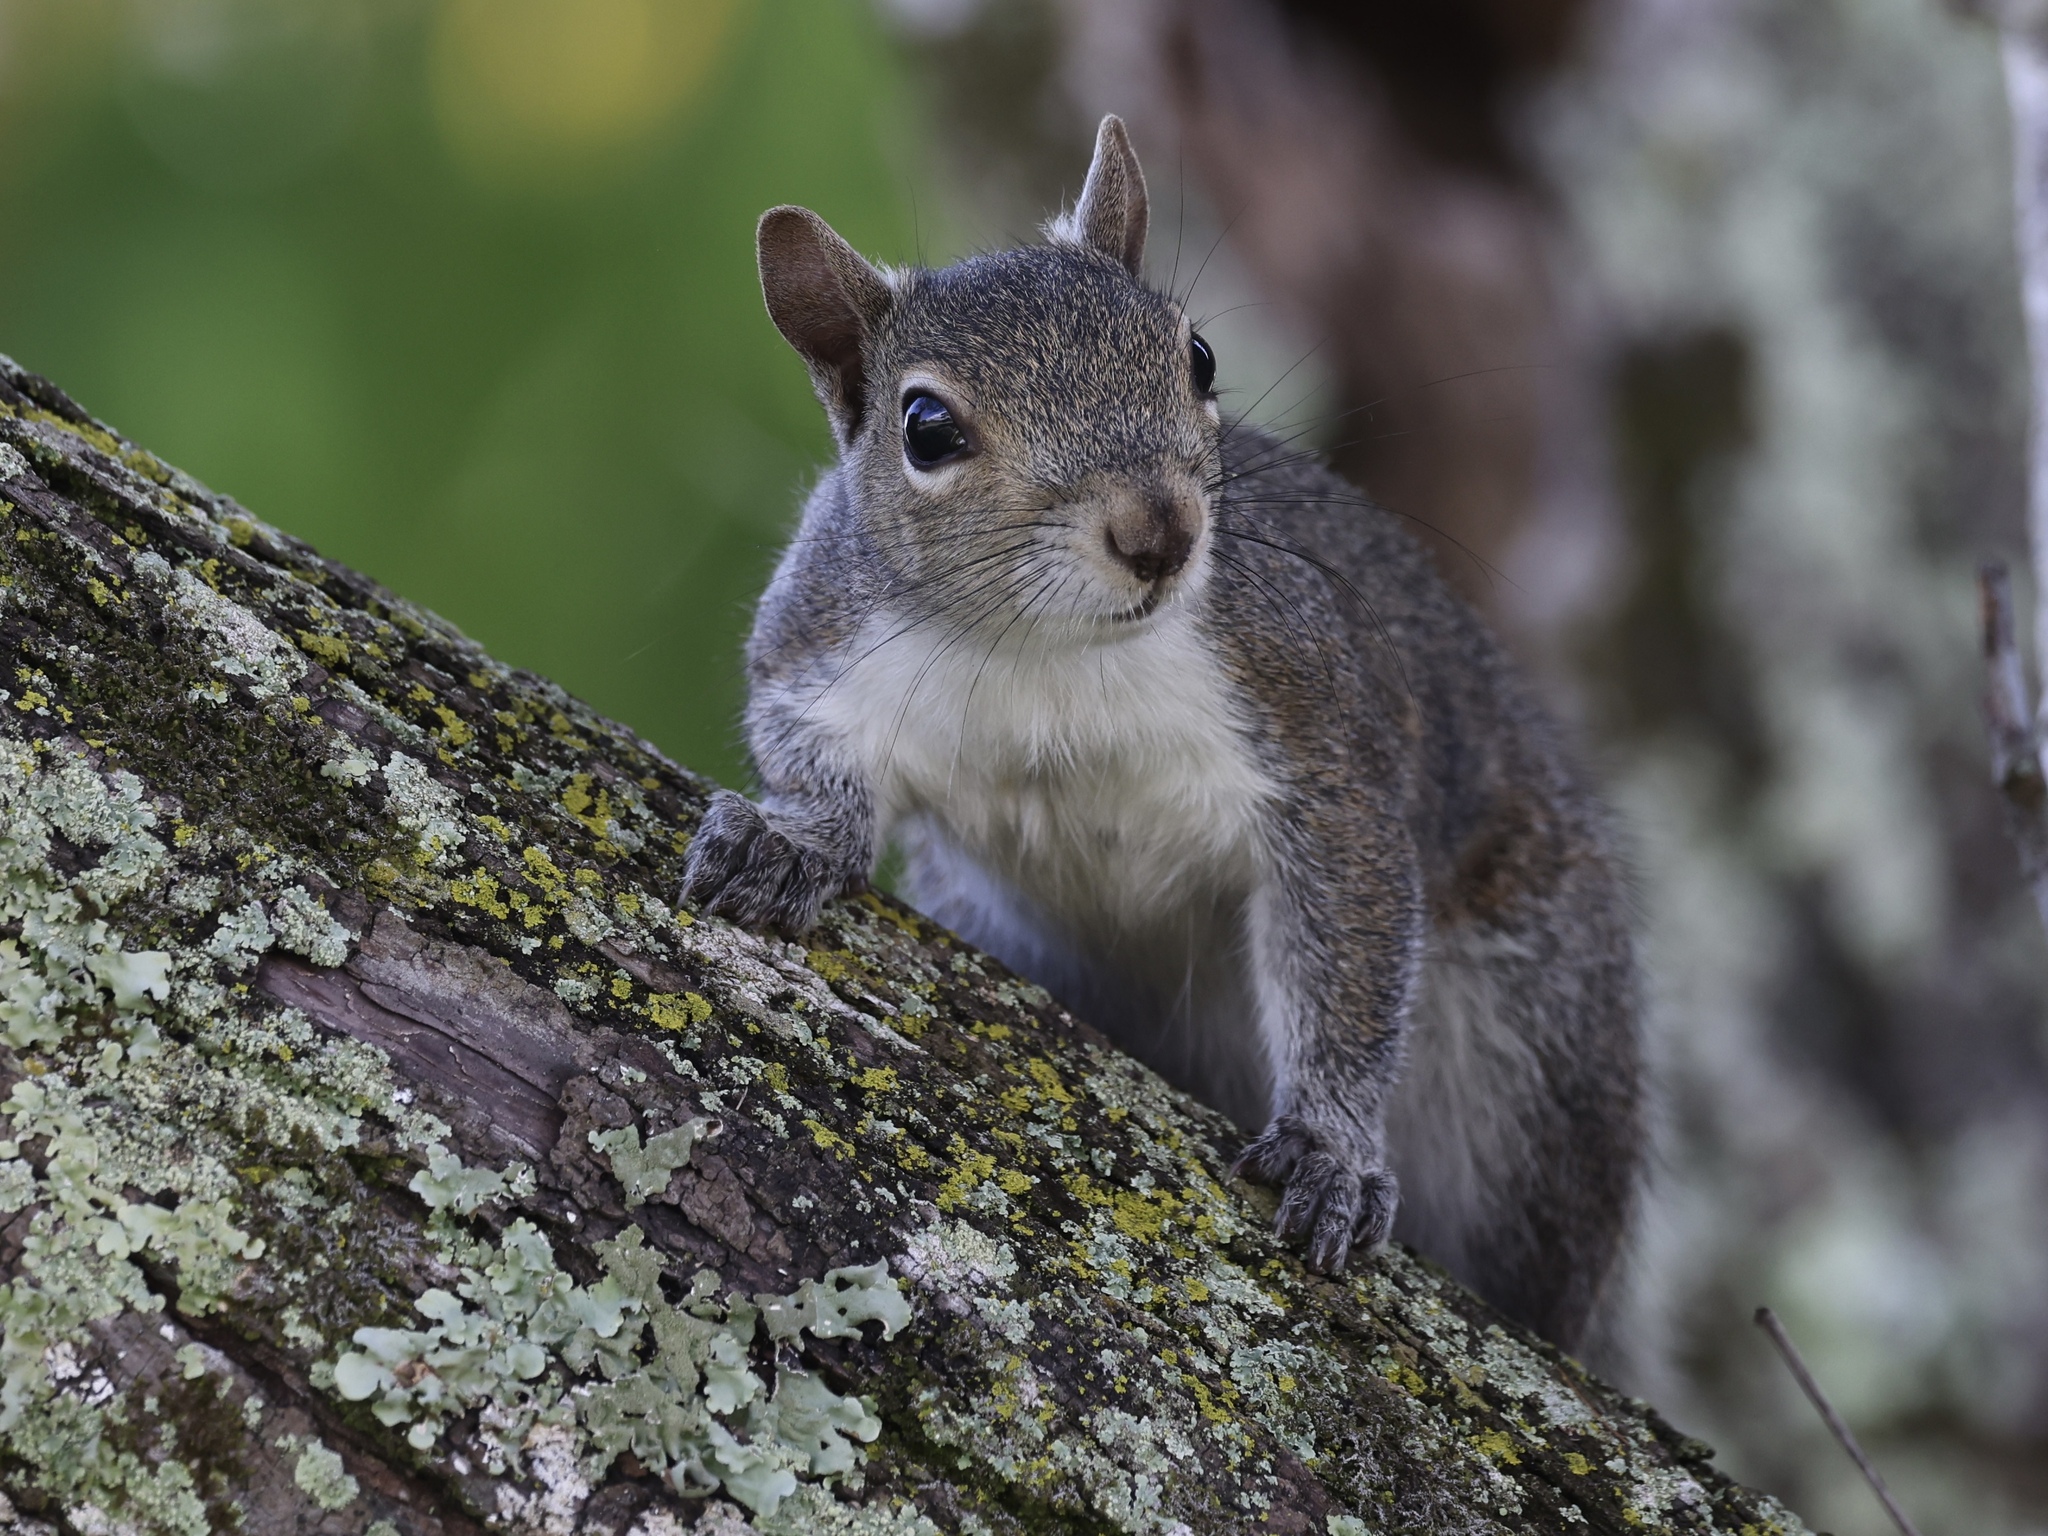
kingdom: Animalia
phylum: Chordata
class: Mammalia
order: Rodentia
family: Sciuridae
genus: Sciurus
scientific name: Sciurus carolinensis
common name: Eastern gray squirrel
